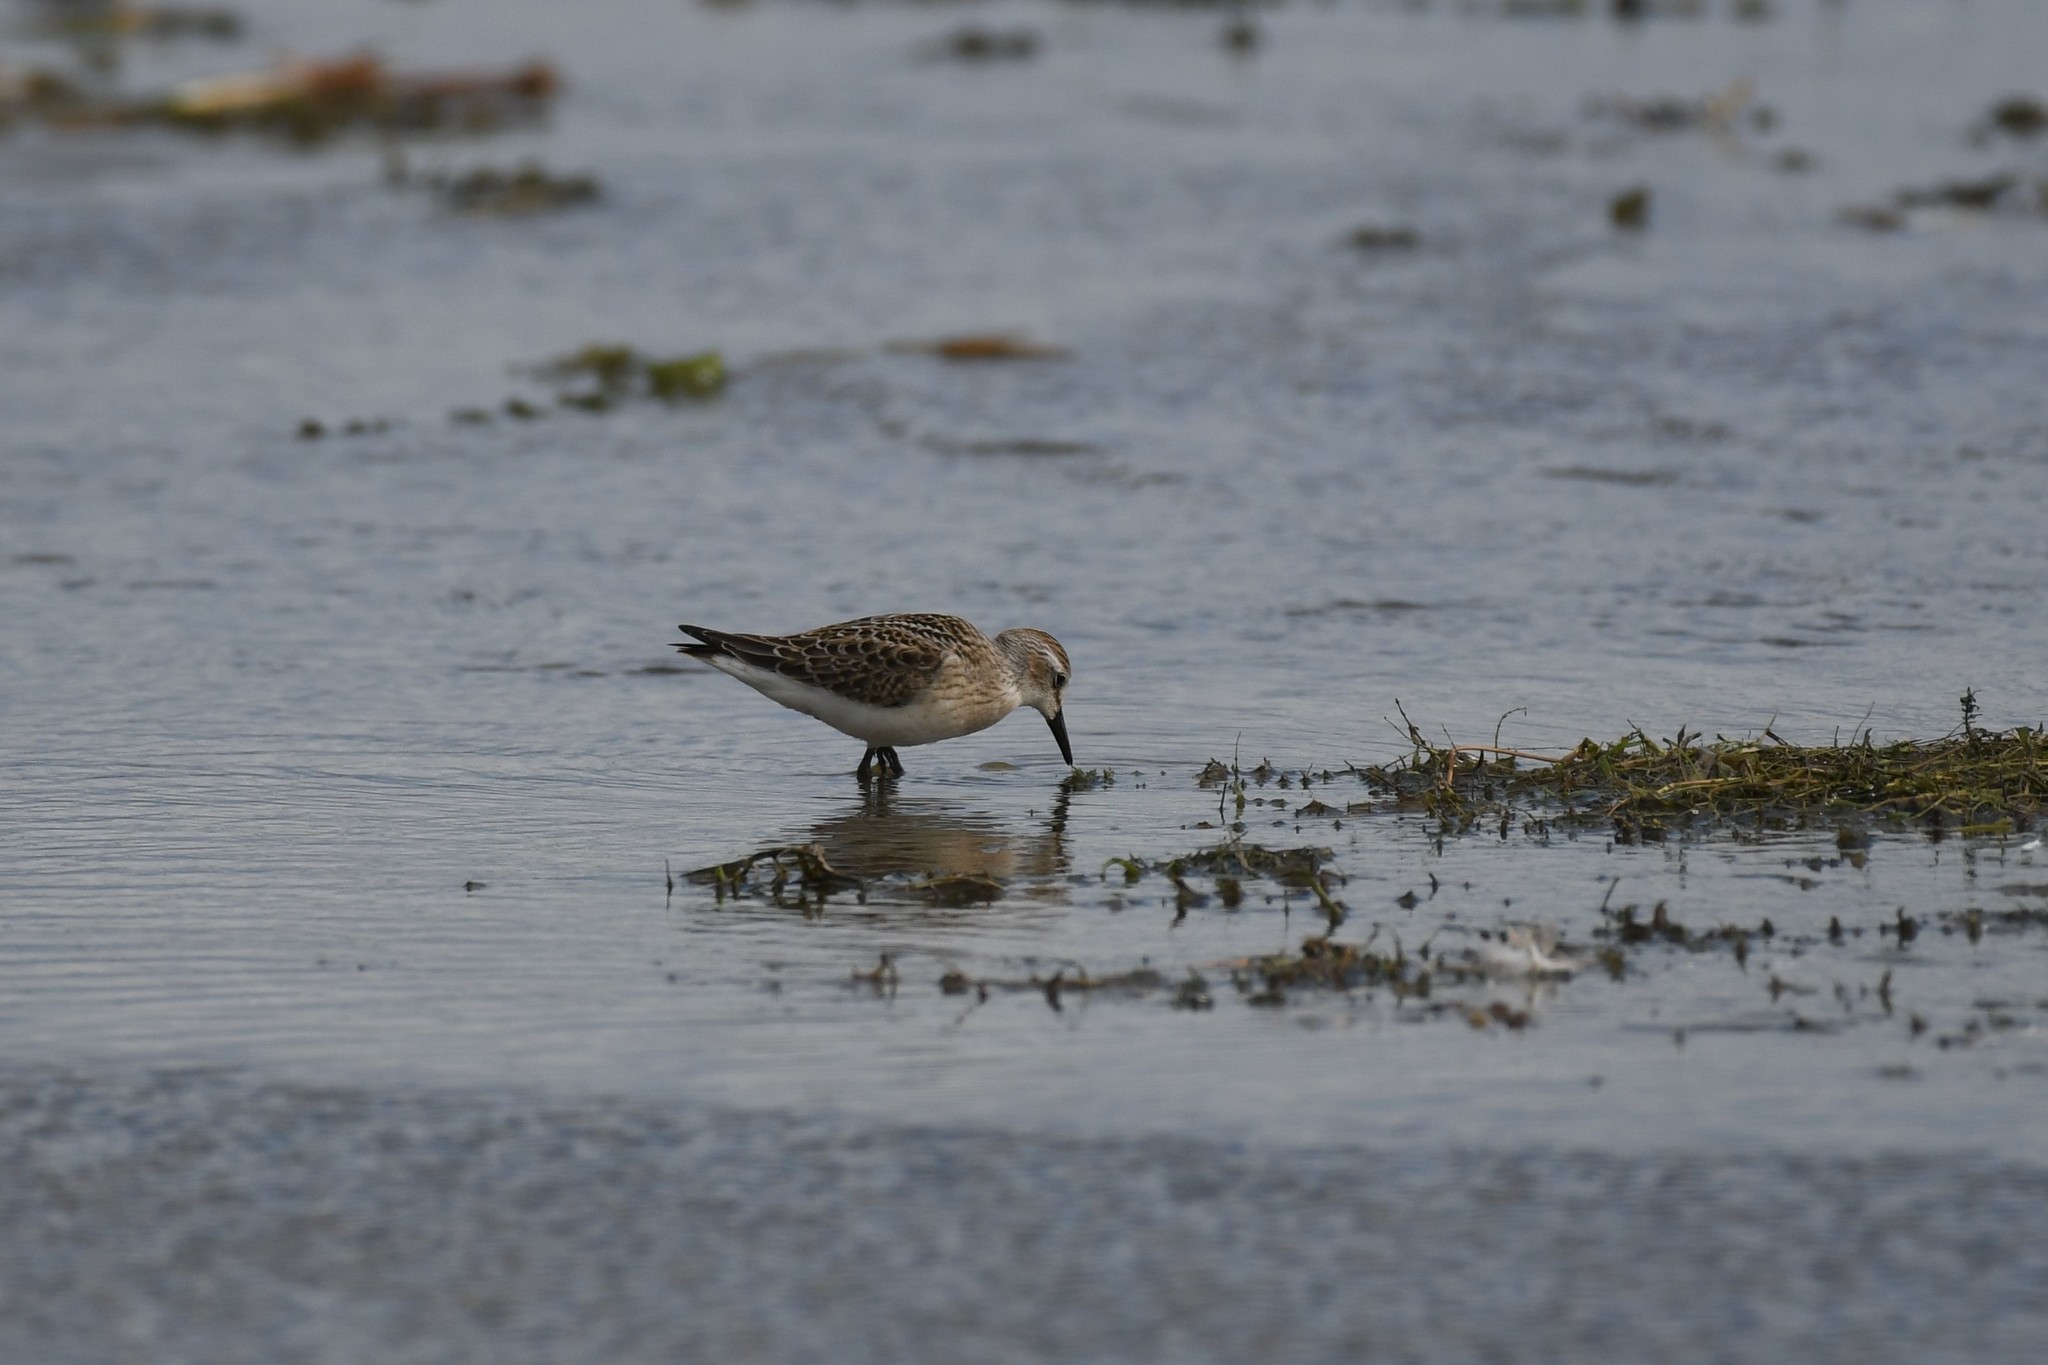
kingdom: Animalia
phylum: Chordata
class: Aves
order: Charadriiformes
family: Scolopacidae
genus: Calidris
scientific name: Calidris pusilla
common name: Semipalmated sandpiper
